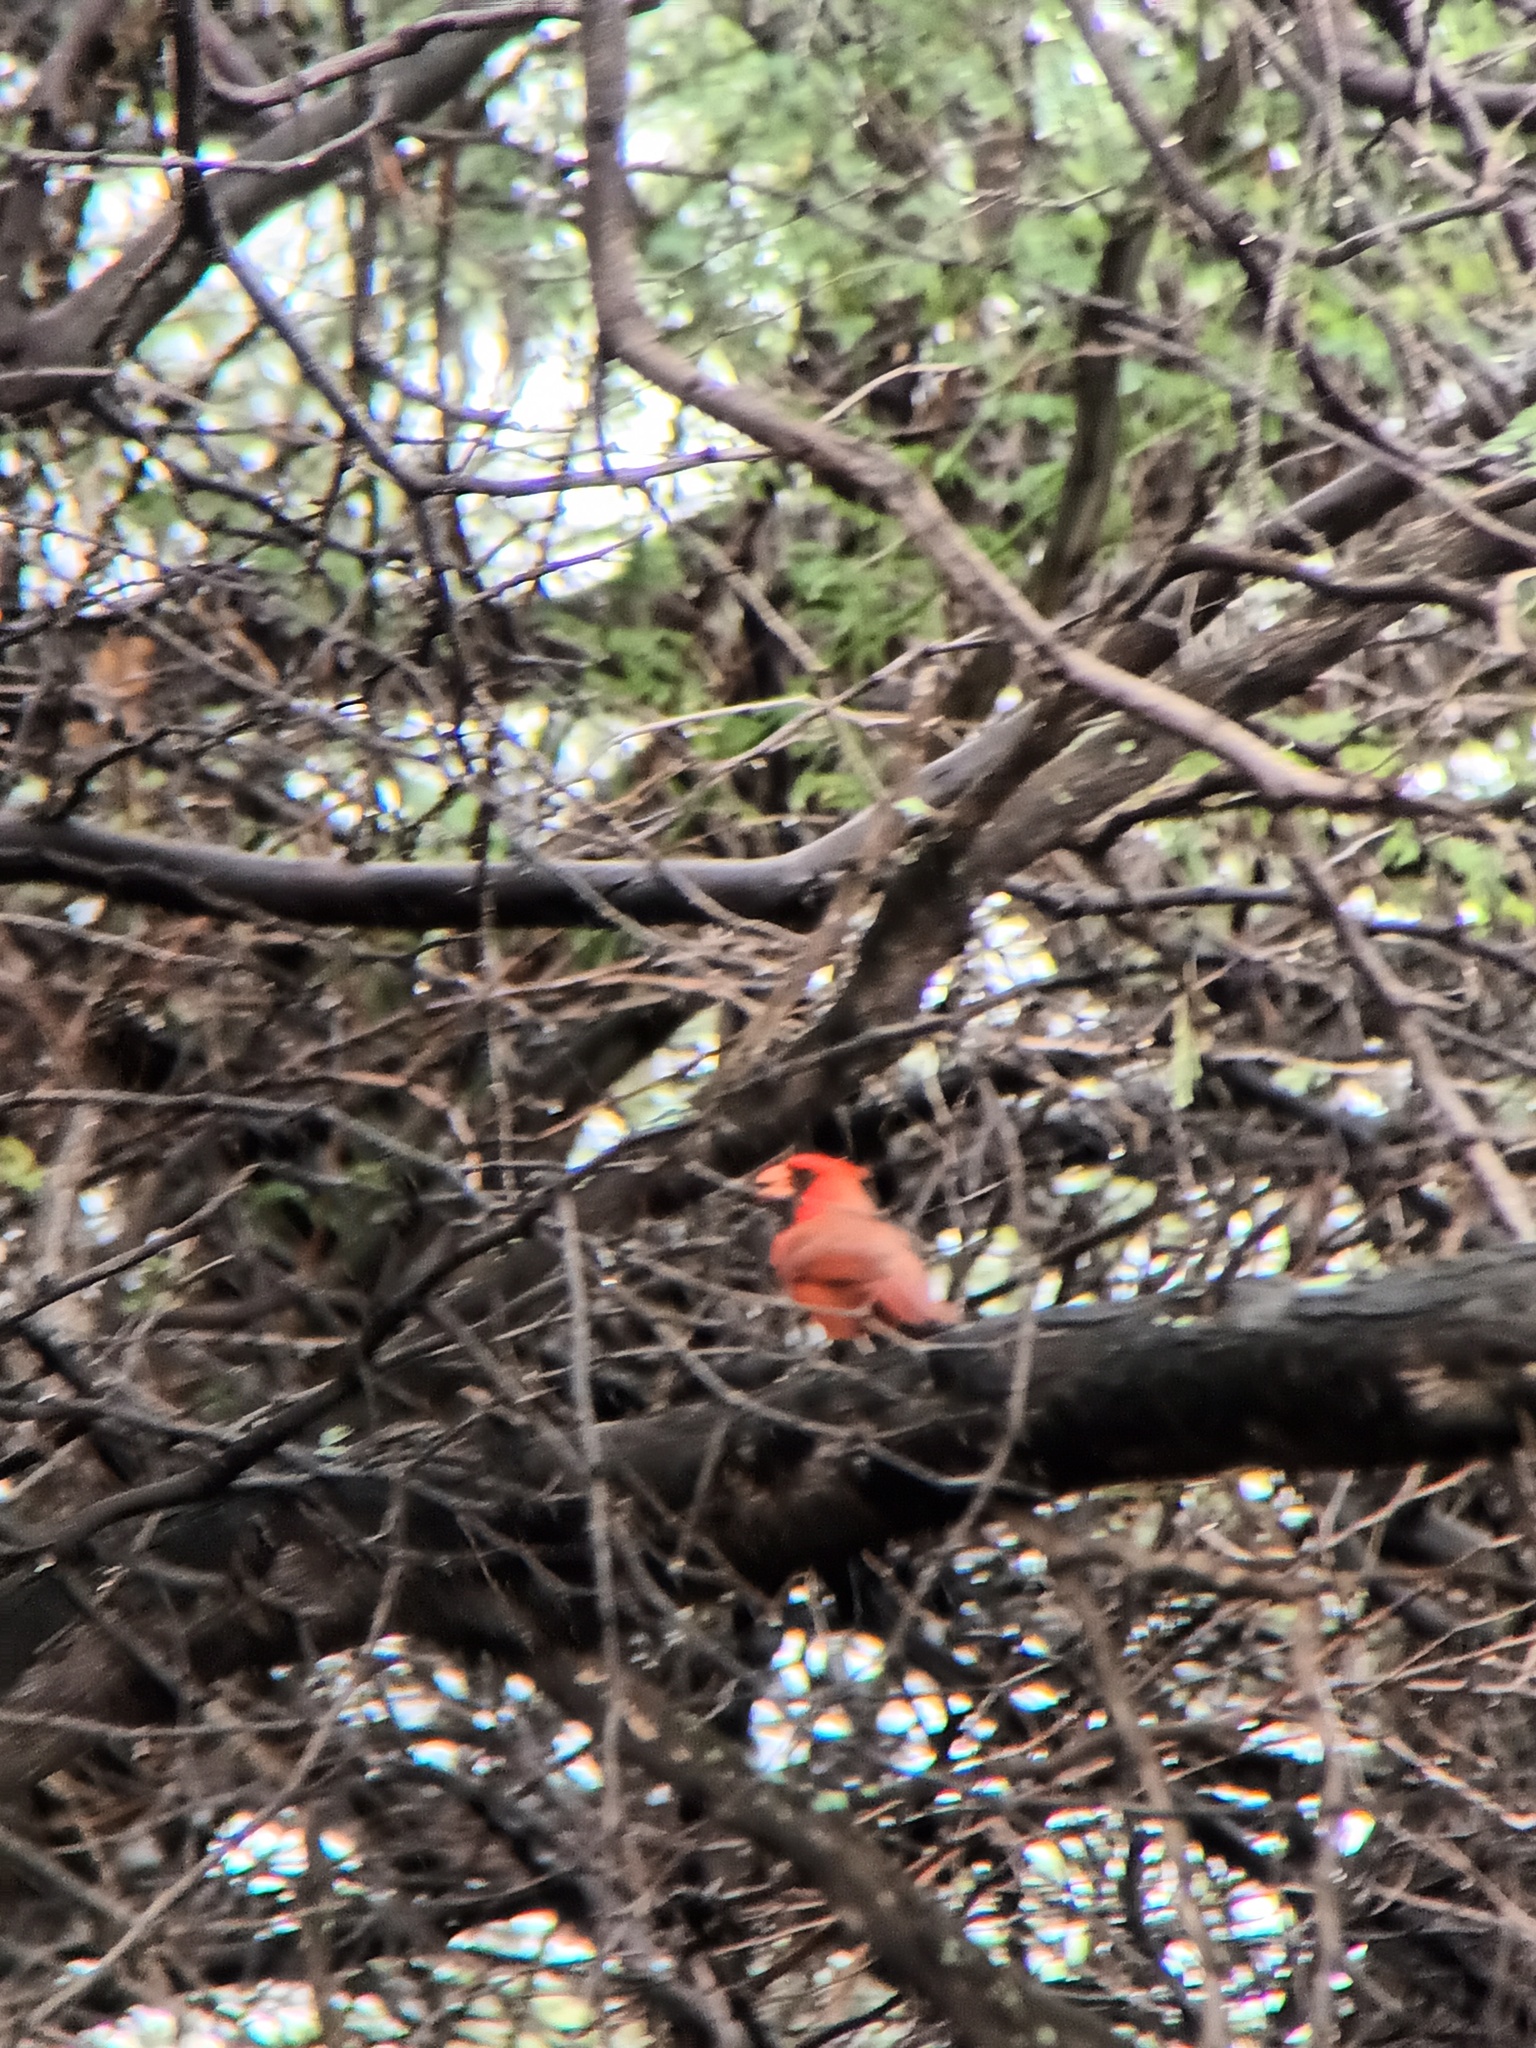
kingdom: Animalia
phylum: Chordata
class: Aves
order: Passeriformes
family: Cardinalidae
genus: Cardinalis
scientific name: Cardinalis cardinalis
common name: Northern cardinal
